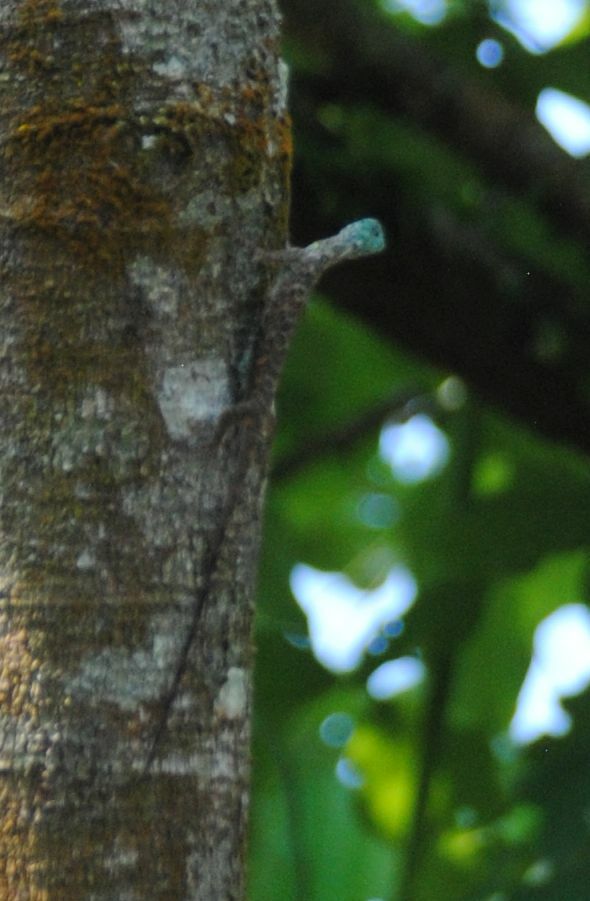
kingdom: Animalia
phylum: Chordata
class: Squamata
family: Agamidae
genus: Draco
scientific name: Draco sumatranus
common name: Common gliding lizard
